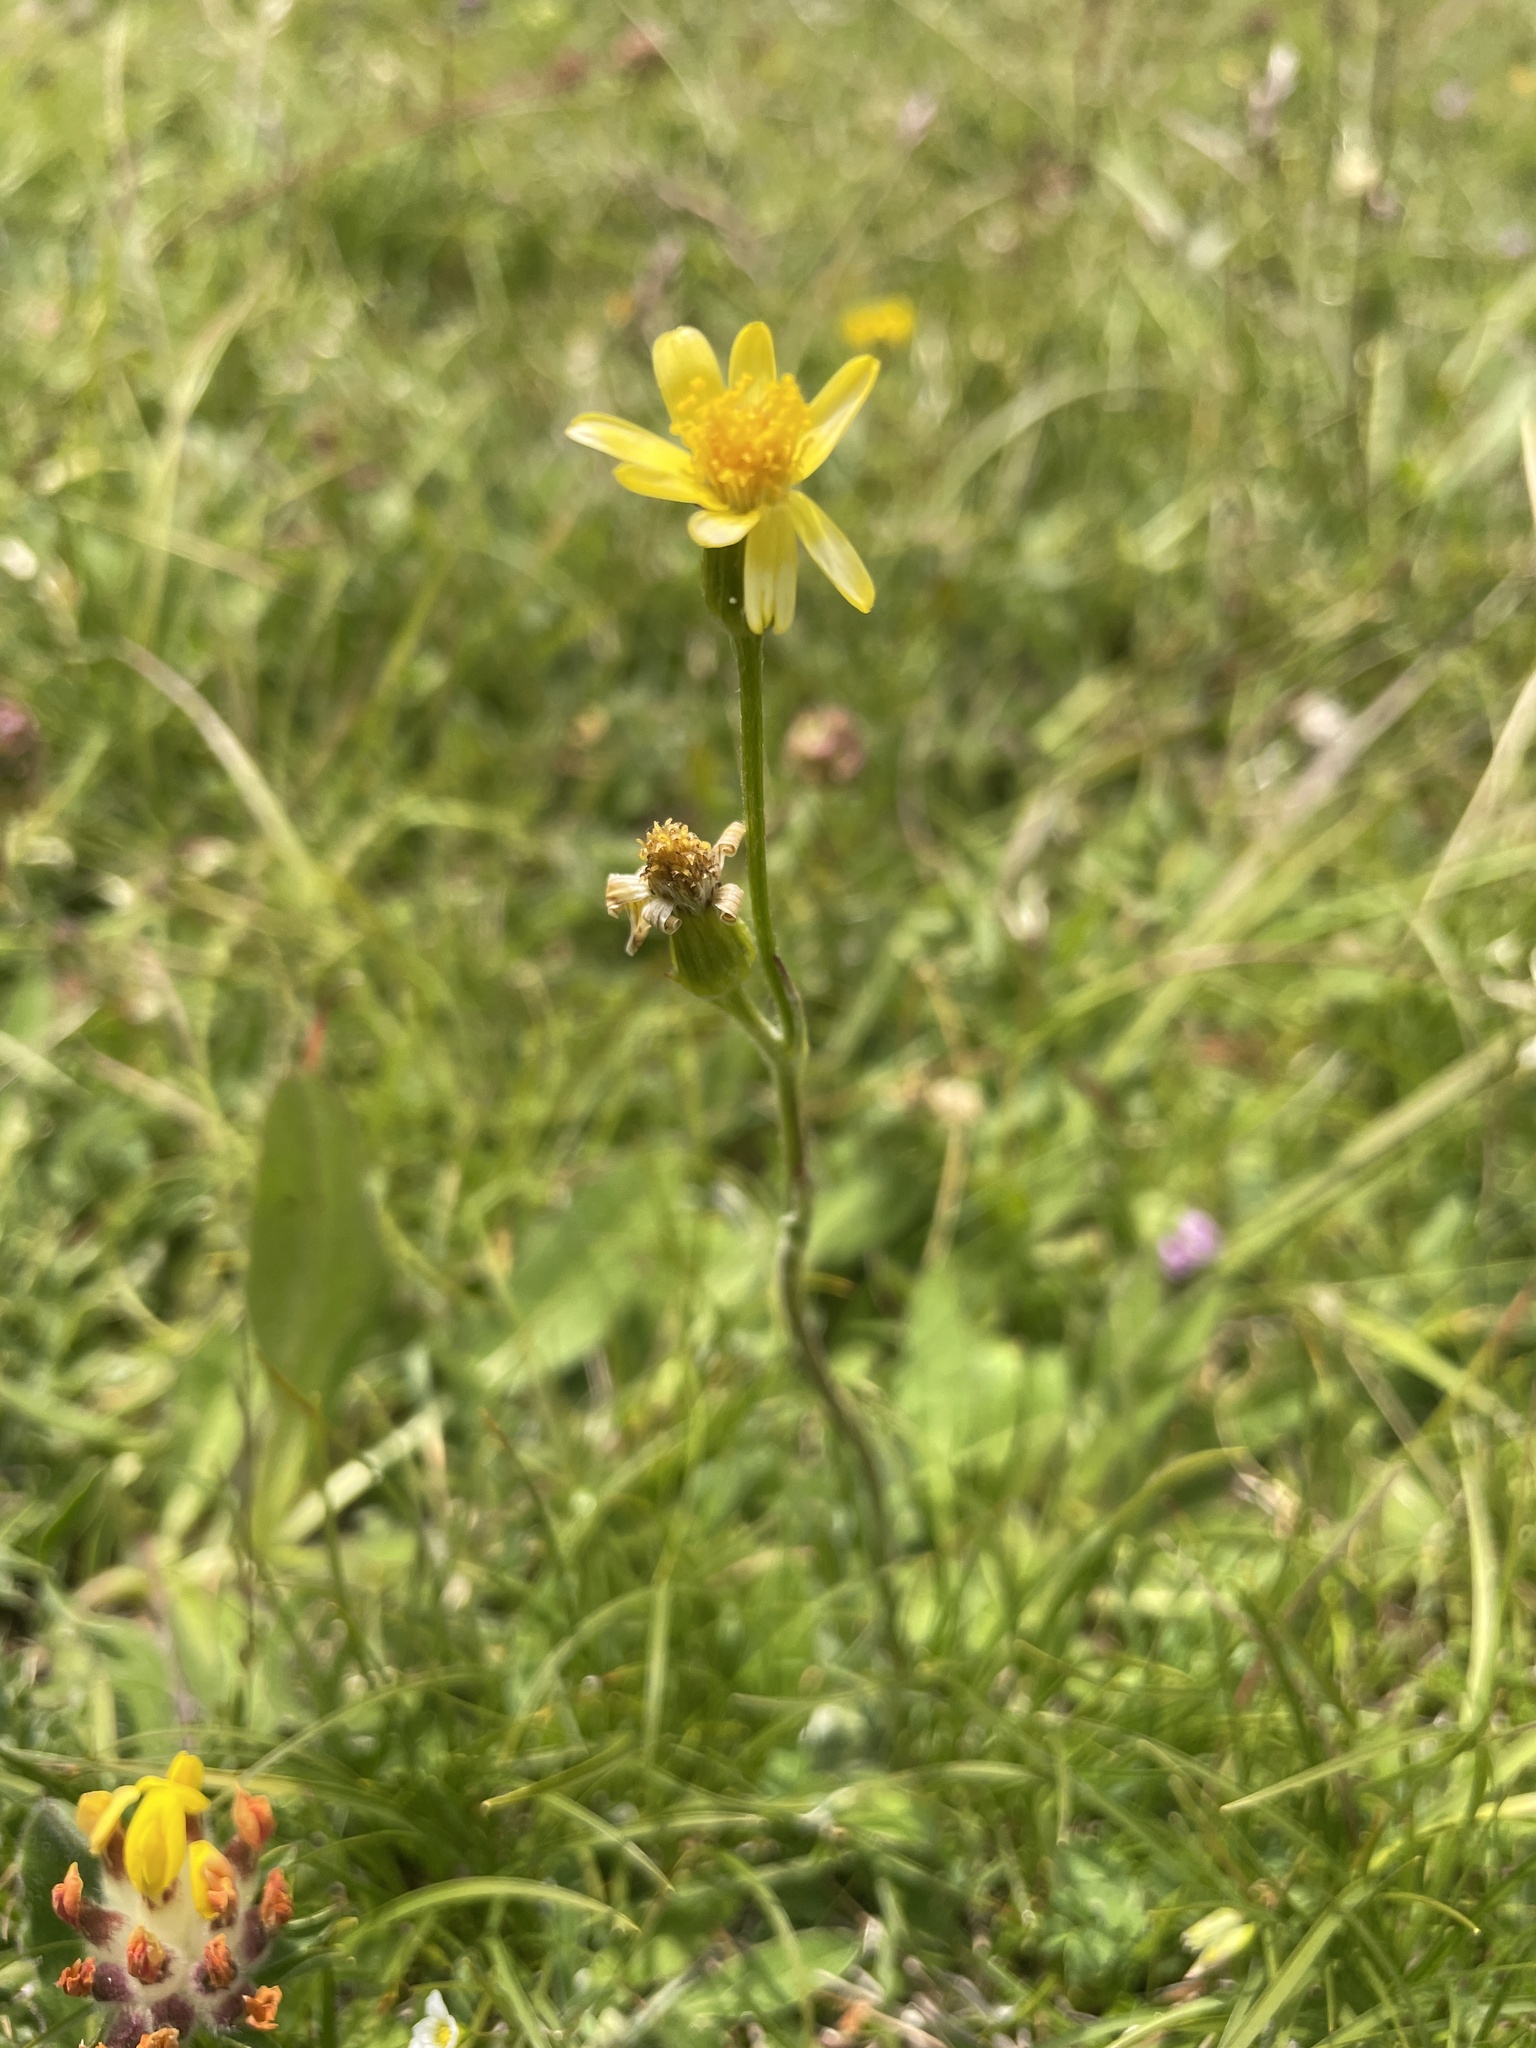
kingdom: Plantae
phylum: Tracheophyta
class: Magnoliopsida
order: Asterales
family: Asteraceae
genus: Tephroseris
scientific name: Tephroseris integrifolia
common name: Field fleawort
